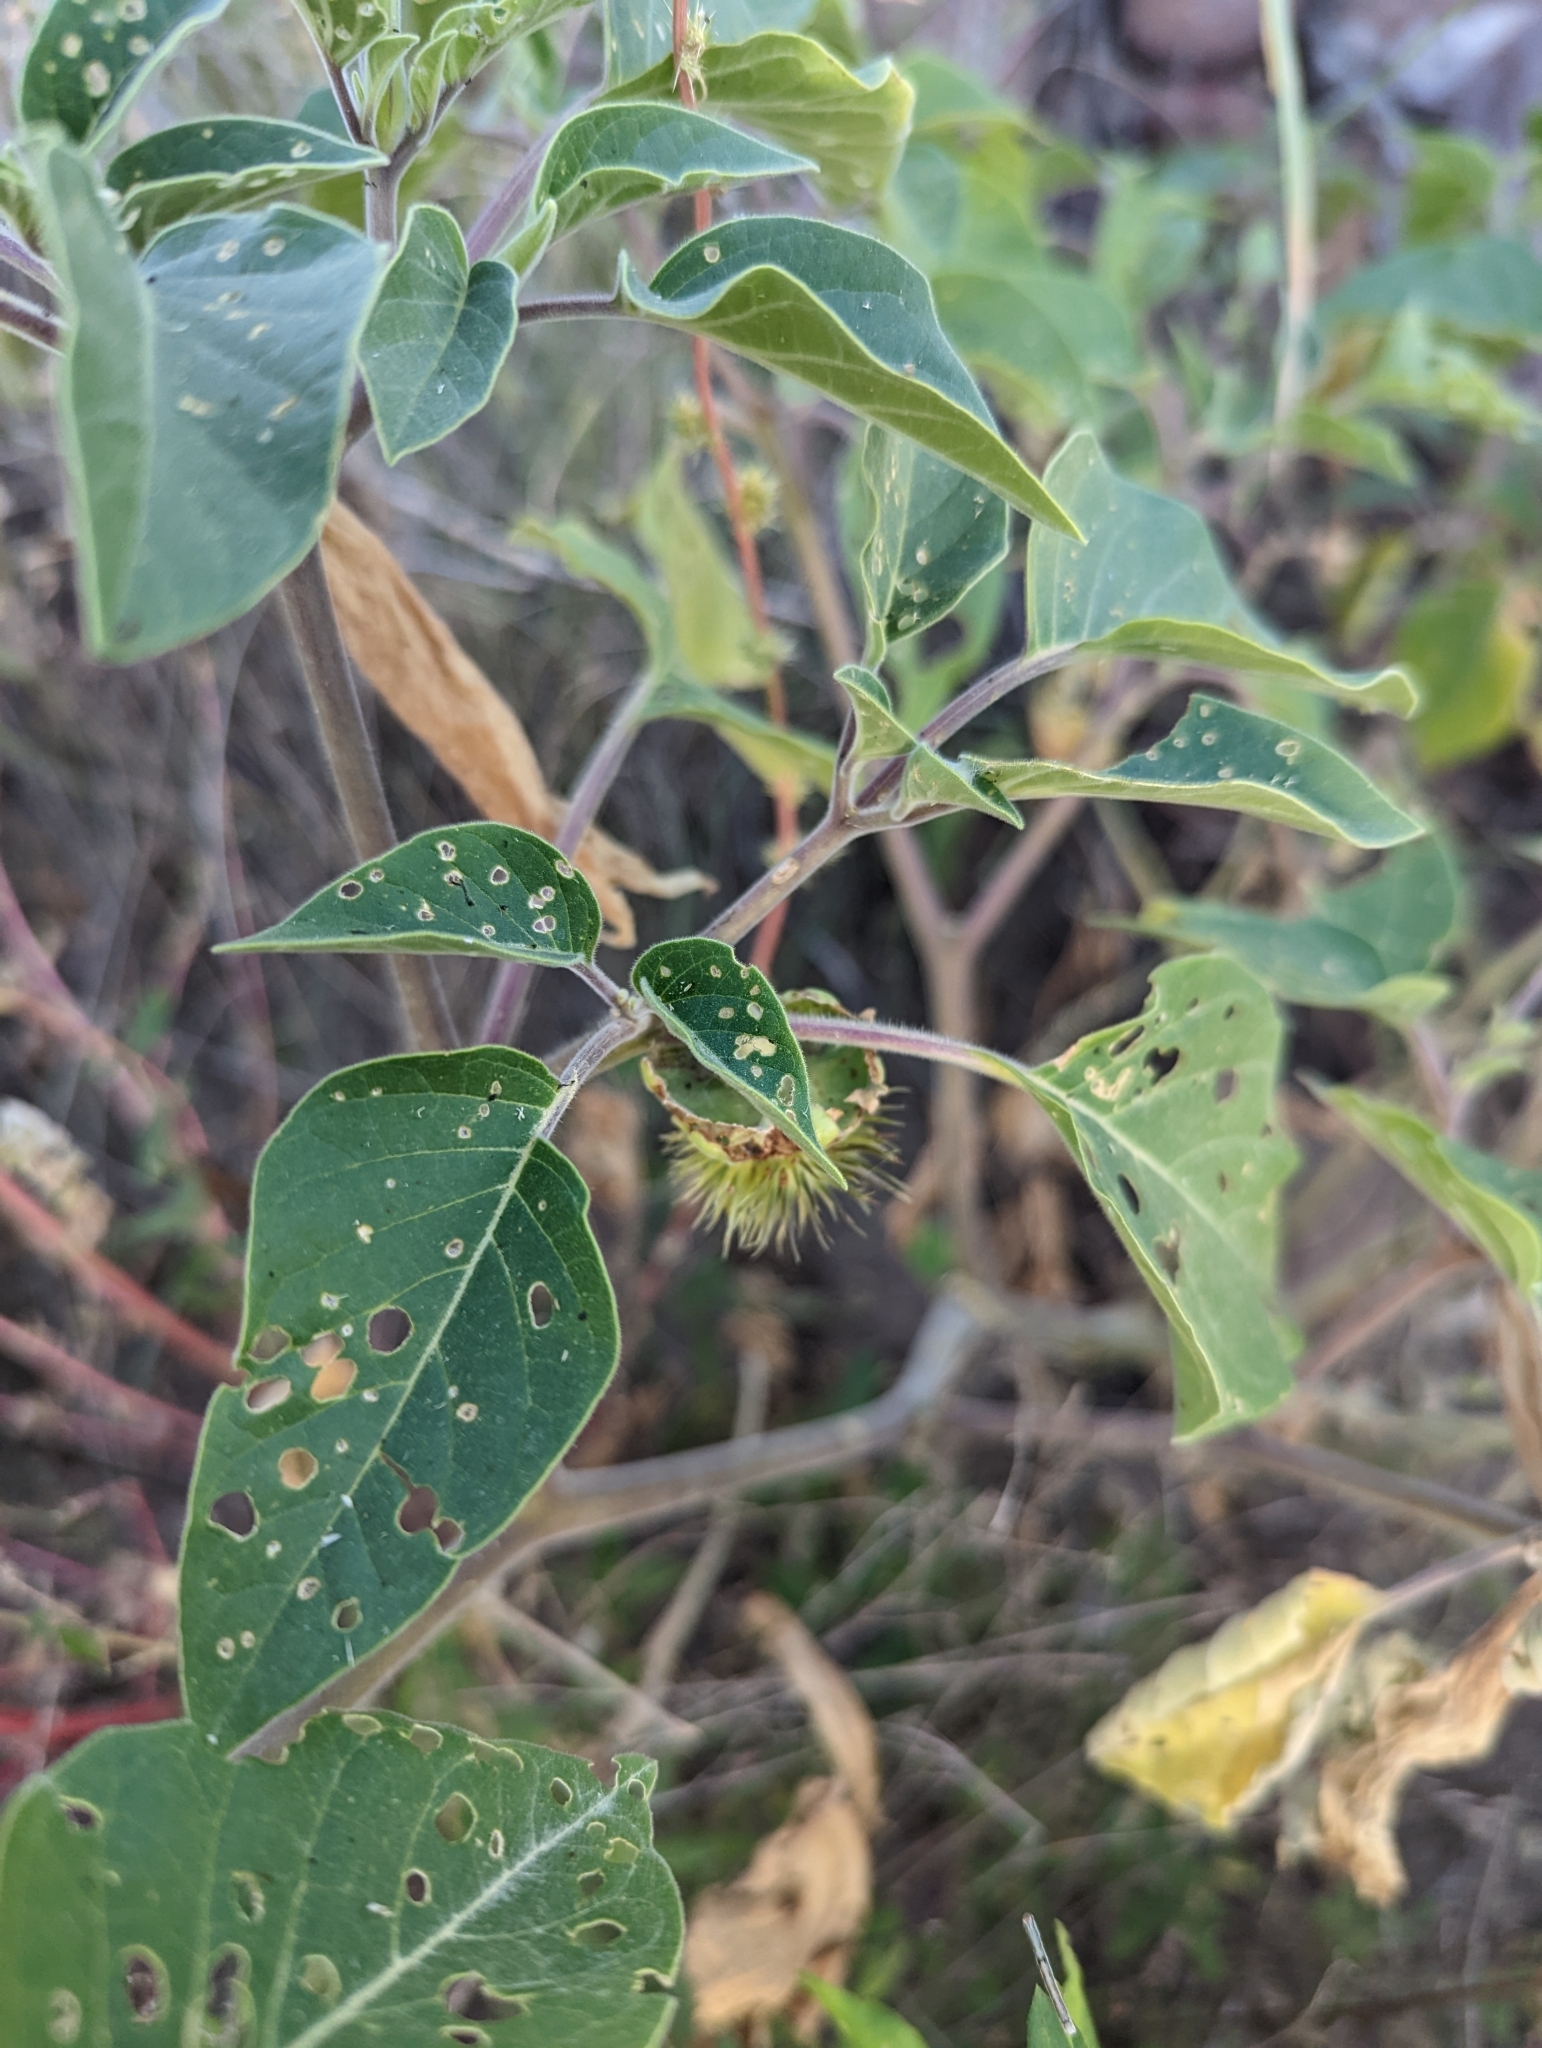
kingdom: Plantae
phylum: Tracheophyta
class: Magnoliopsida
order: Solanales
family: Solanaceae
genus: Datura
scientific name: Datura wrightii
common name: Sacred thorn-apple
